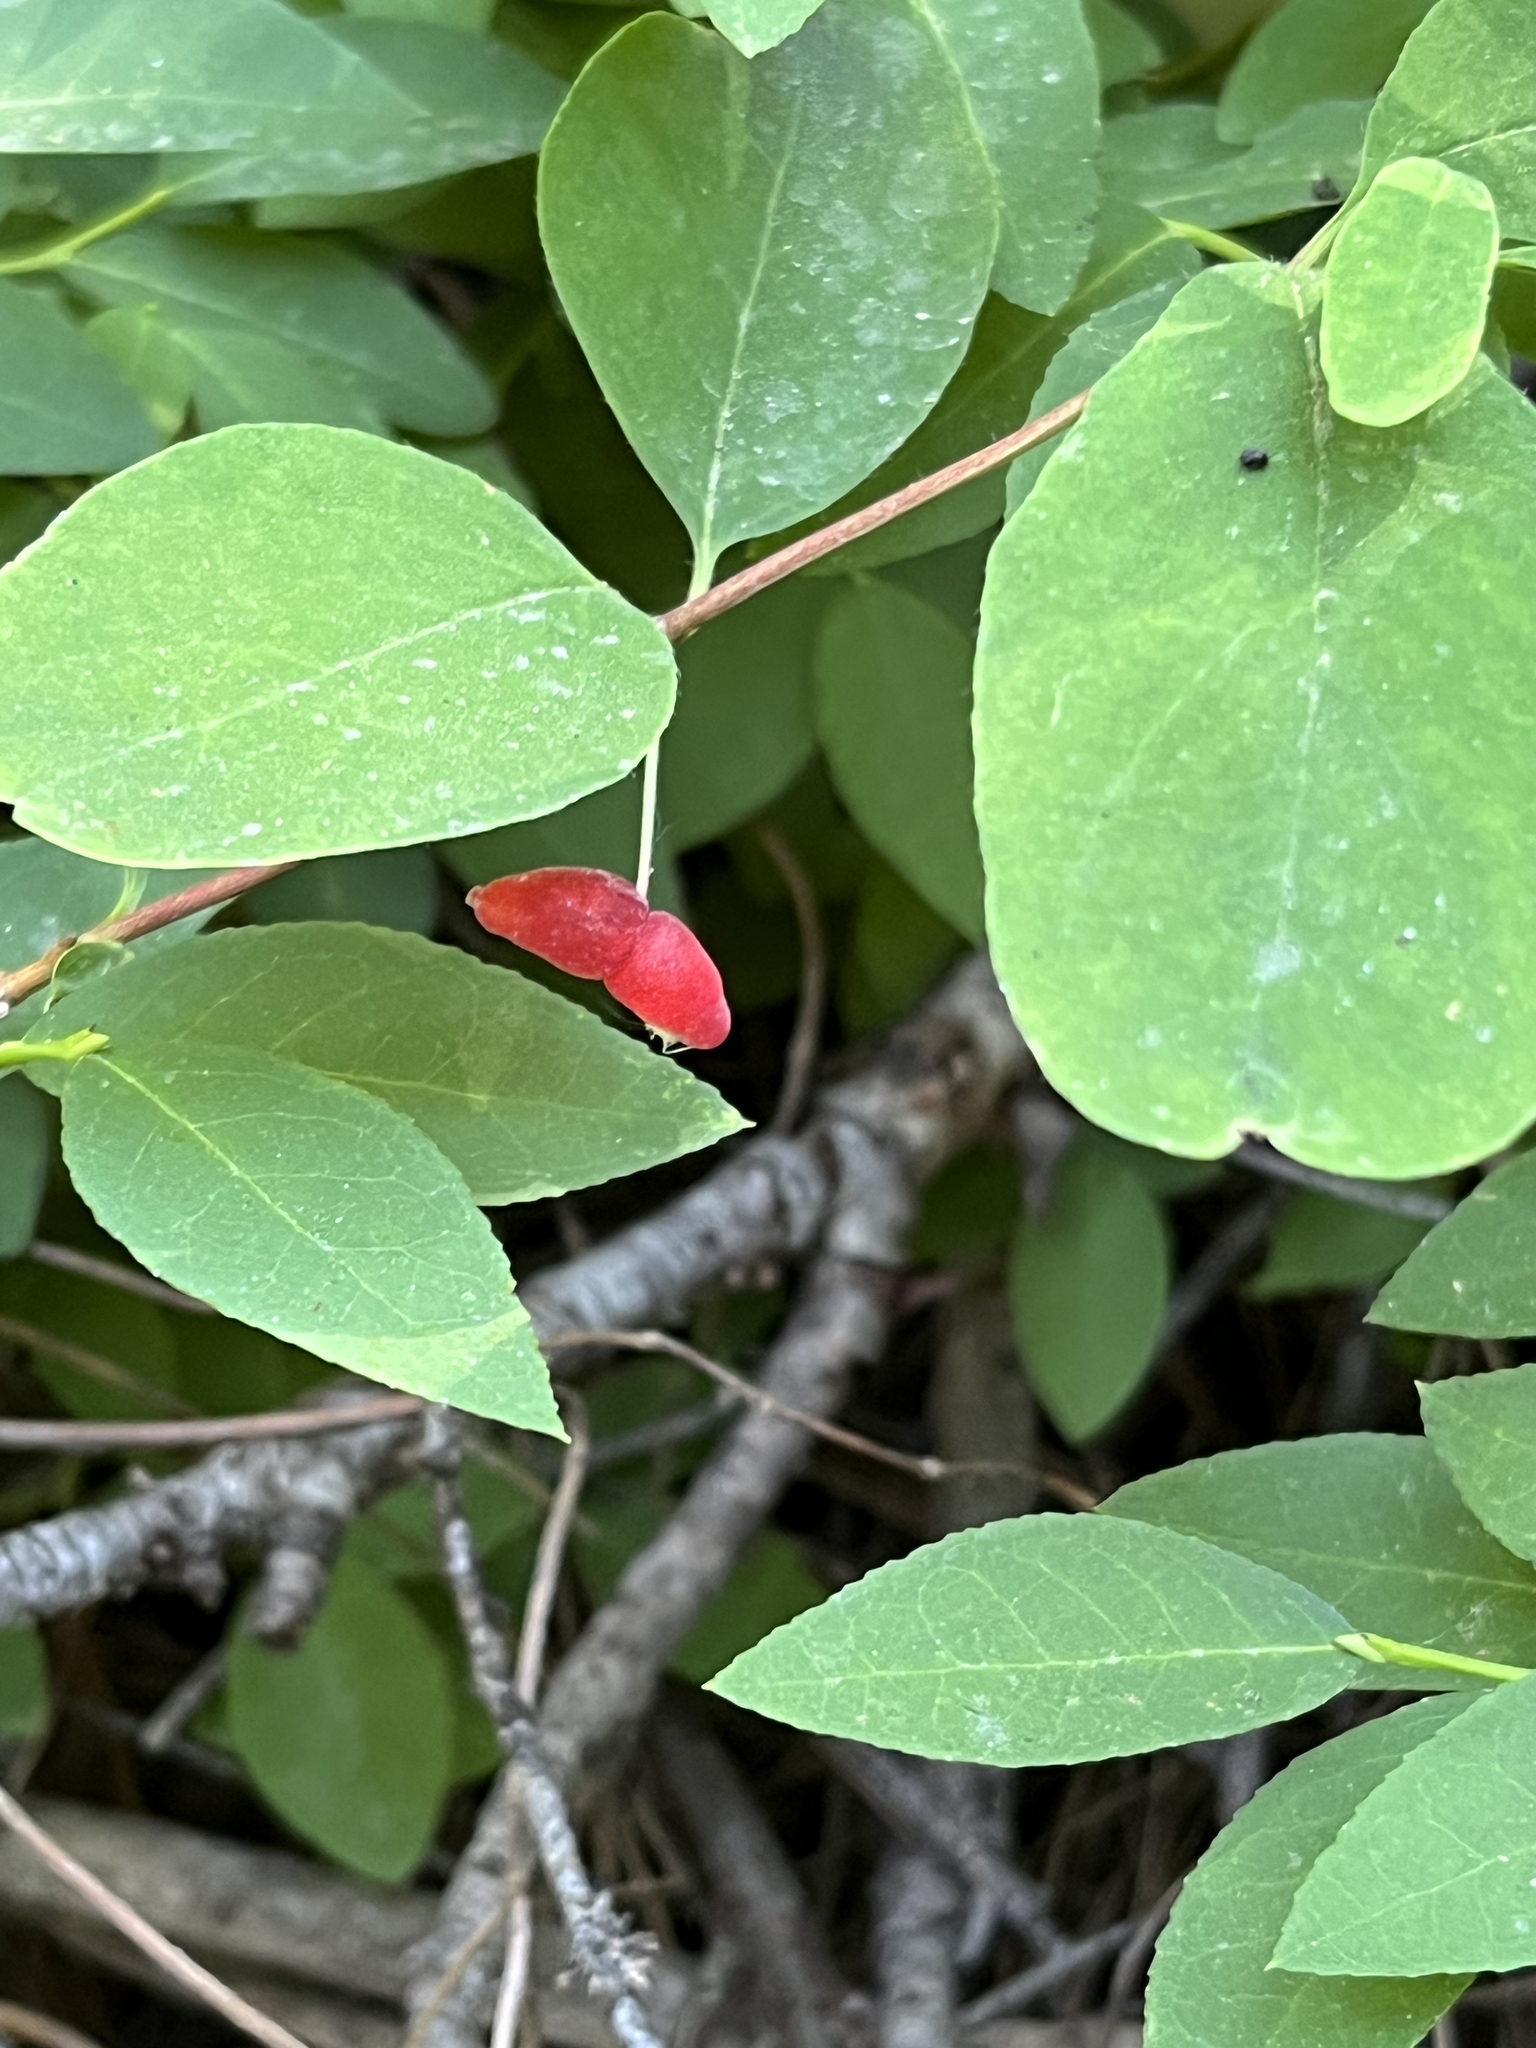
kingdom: Plantae
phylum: Tracheophyta
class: Magnoliopsida
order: Dipsacales
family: Caprifoliaceae
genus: Lonicera
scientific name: Lonicera utahensis
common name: Utah honeysuckle
